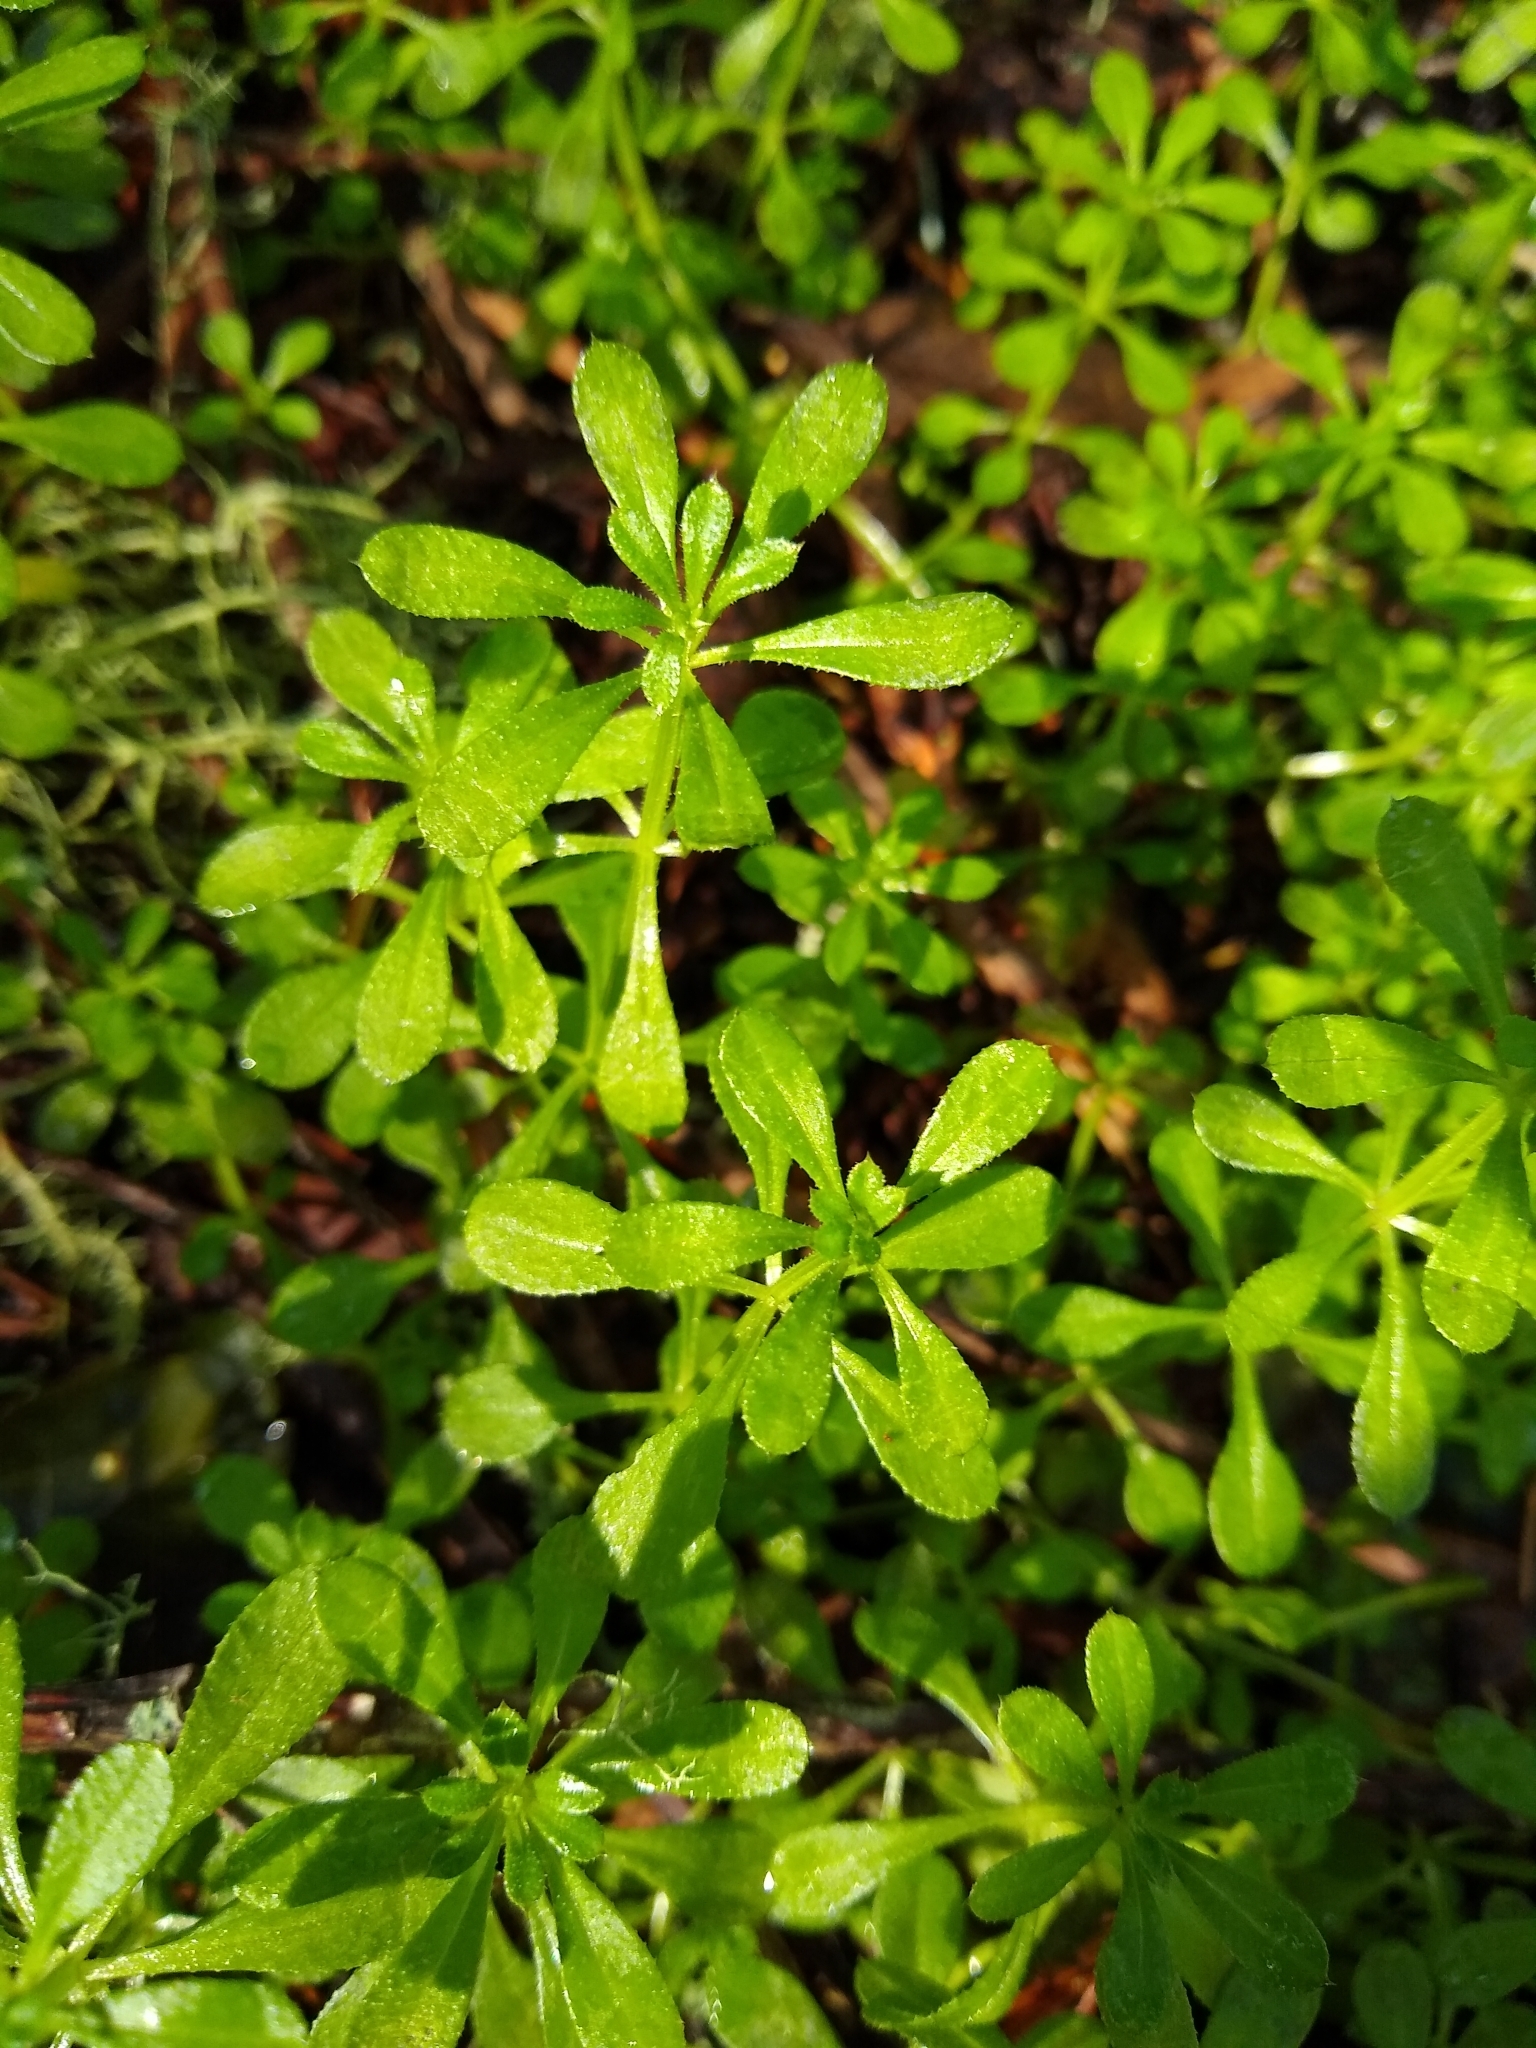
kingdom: Plantae
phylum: Tracheophyta
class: Magnoliopsida
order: Gentianales
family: Rubiaceae
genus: Galium
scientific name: Galium aparine
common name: Cleavers
